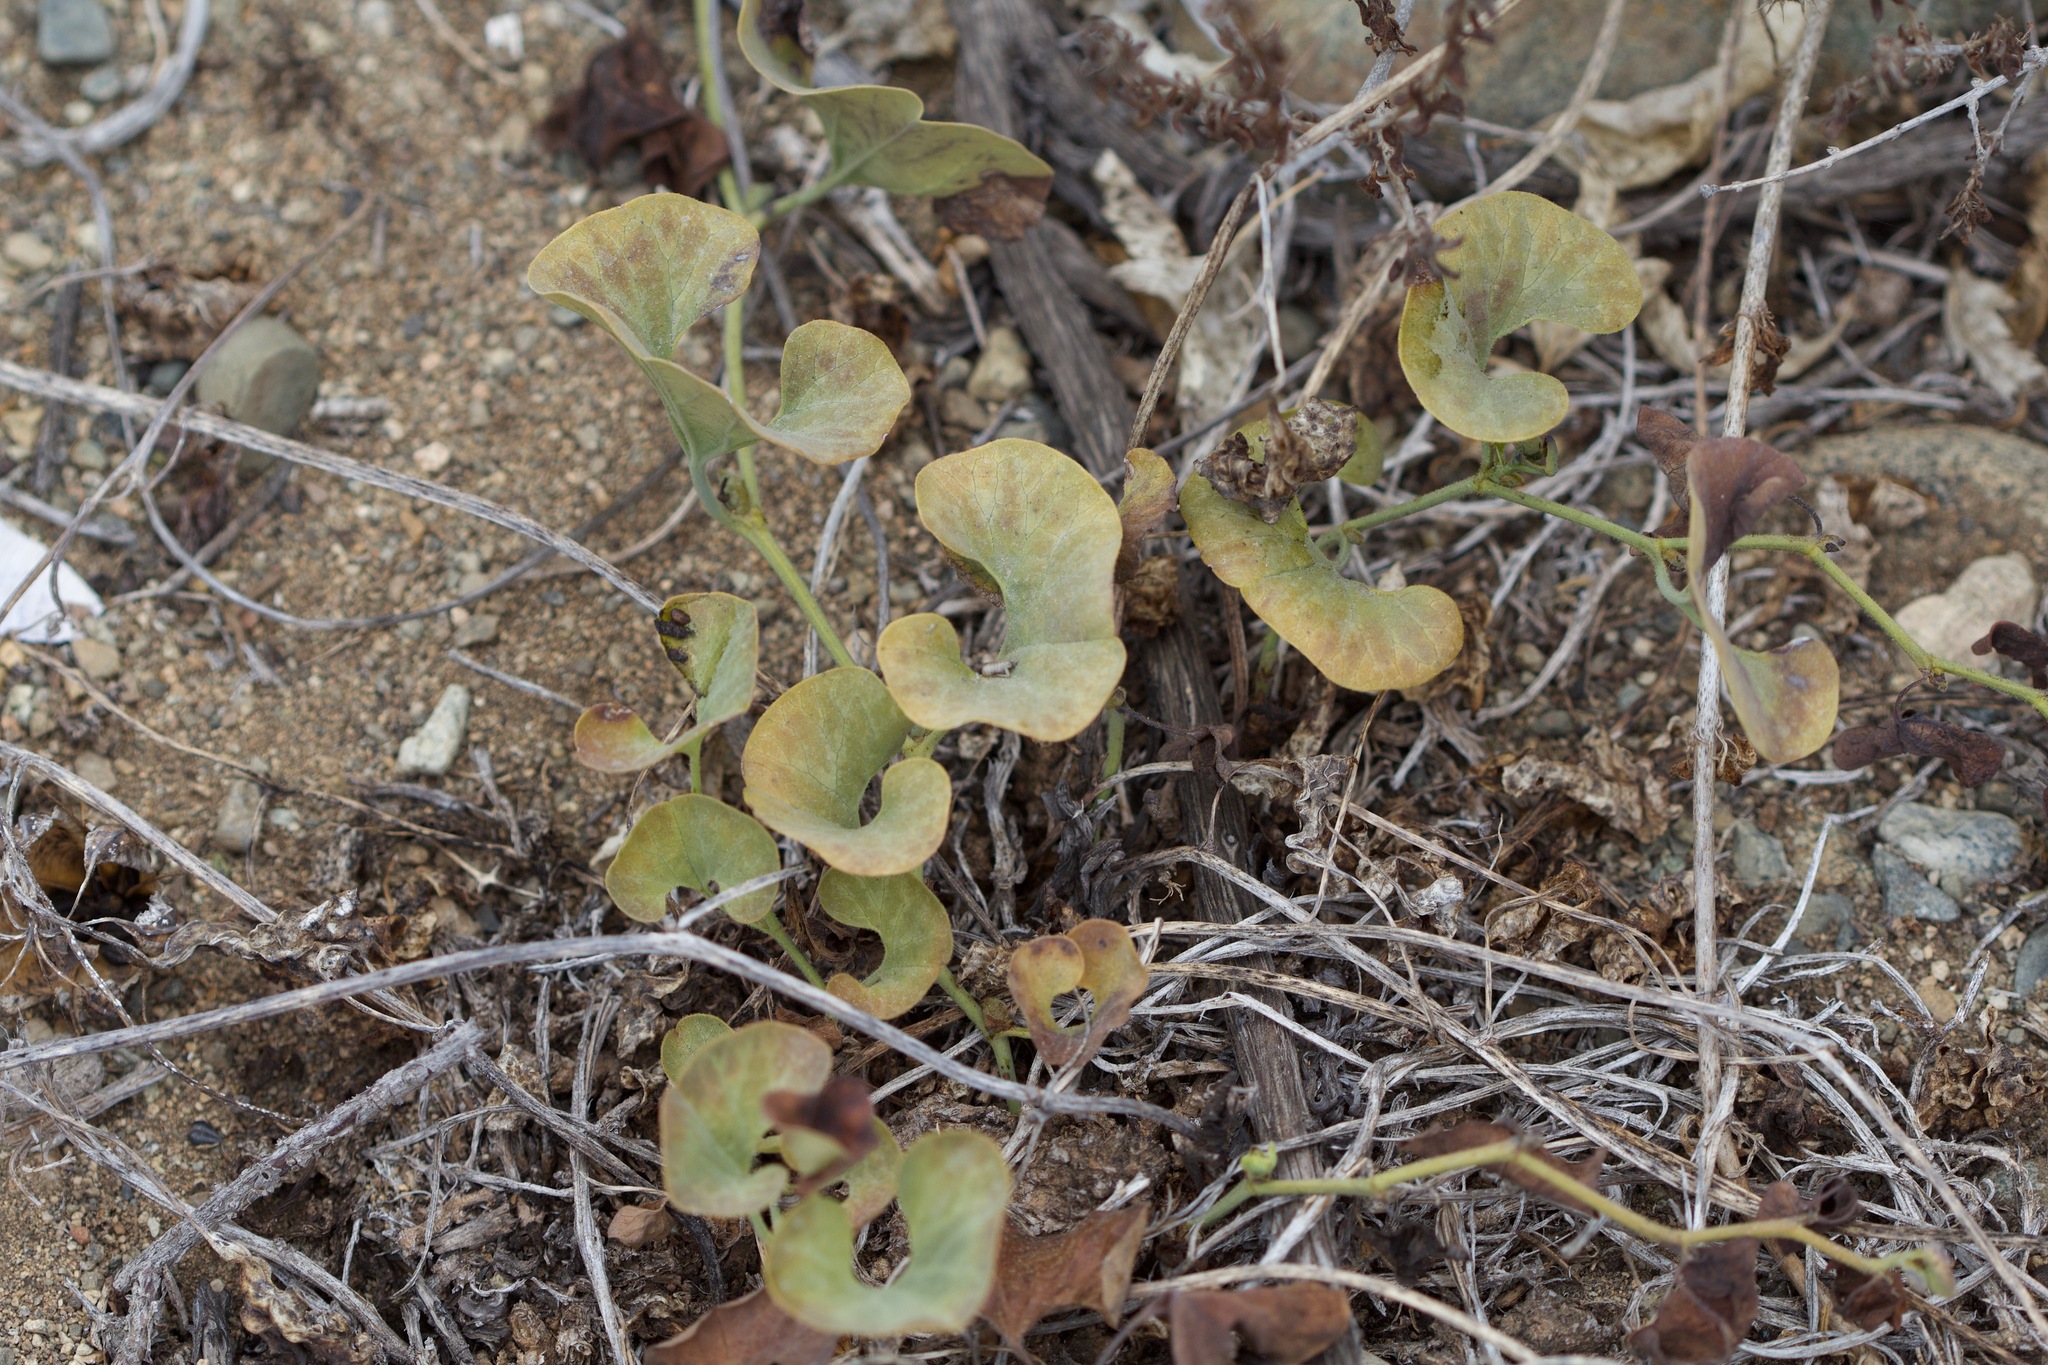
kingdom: Plantae
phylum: Tracheophyta
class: Magnoliopsida
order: Piperales
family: Aristolochiaceae
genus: Aristolochia
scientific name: Aristolochia chilensis
